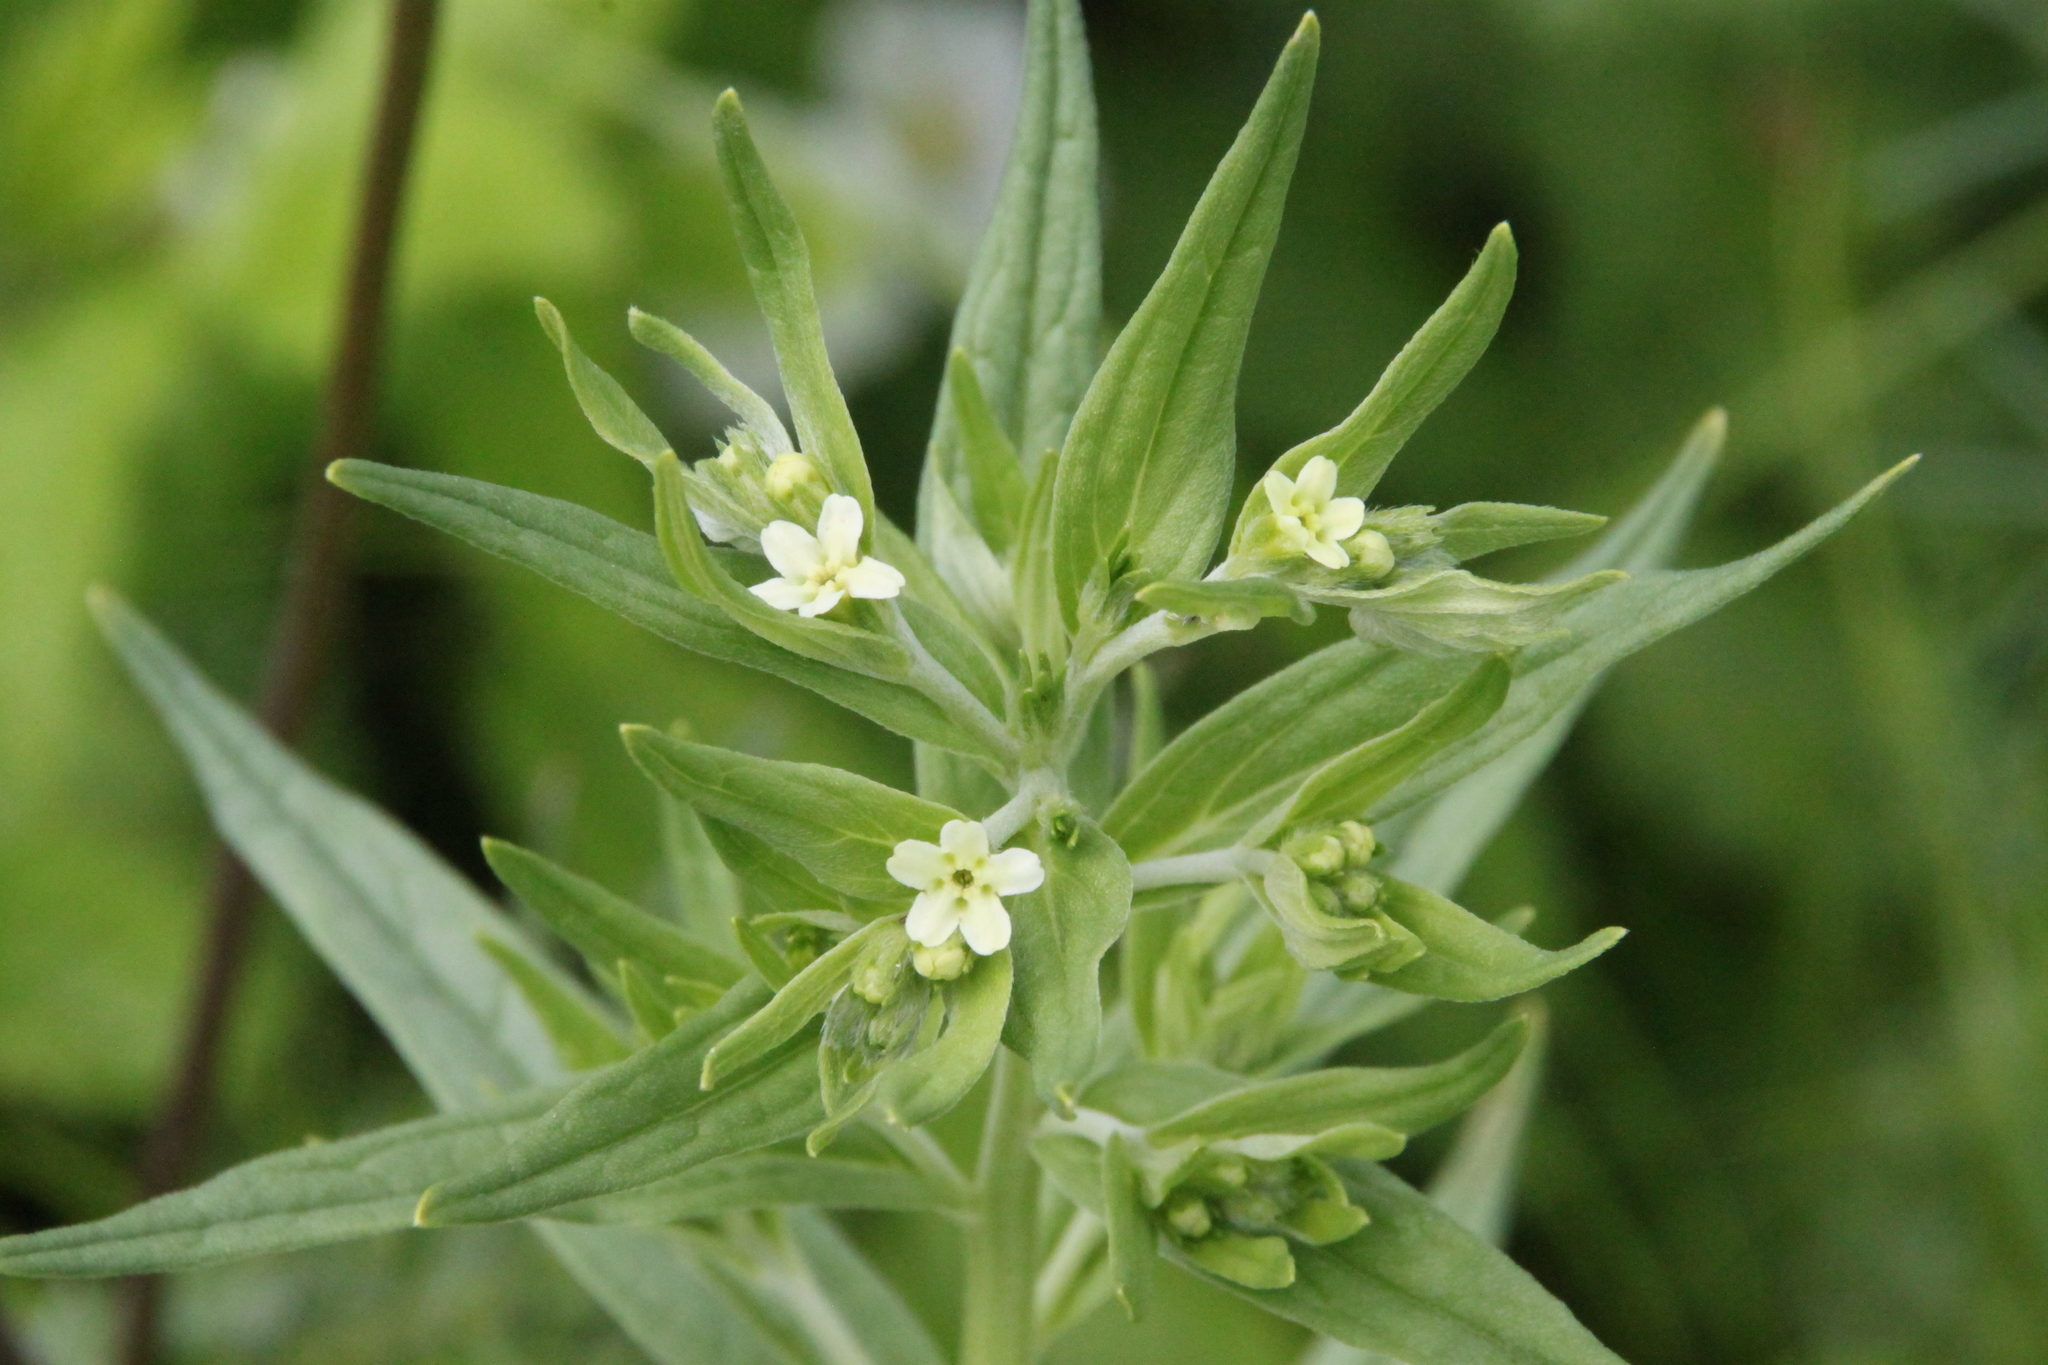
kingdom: Plantae
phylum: Tracheophyta
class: Magnoliopsida
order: Boraginales
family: Boraginaceae
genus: Lithospermum
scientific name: Lithospermum officinale
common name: Common gromwell
